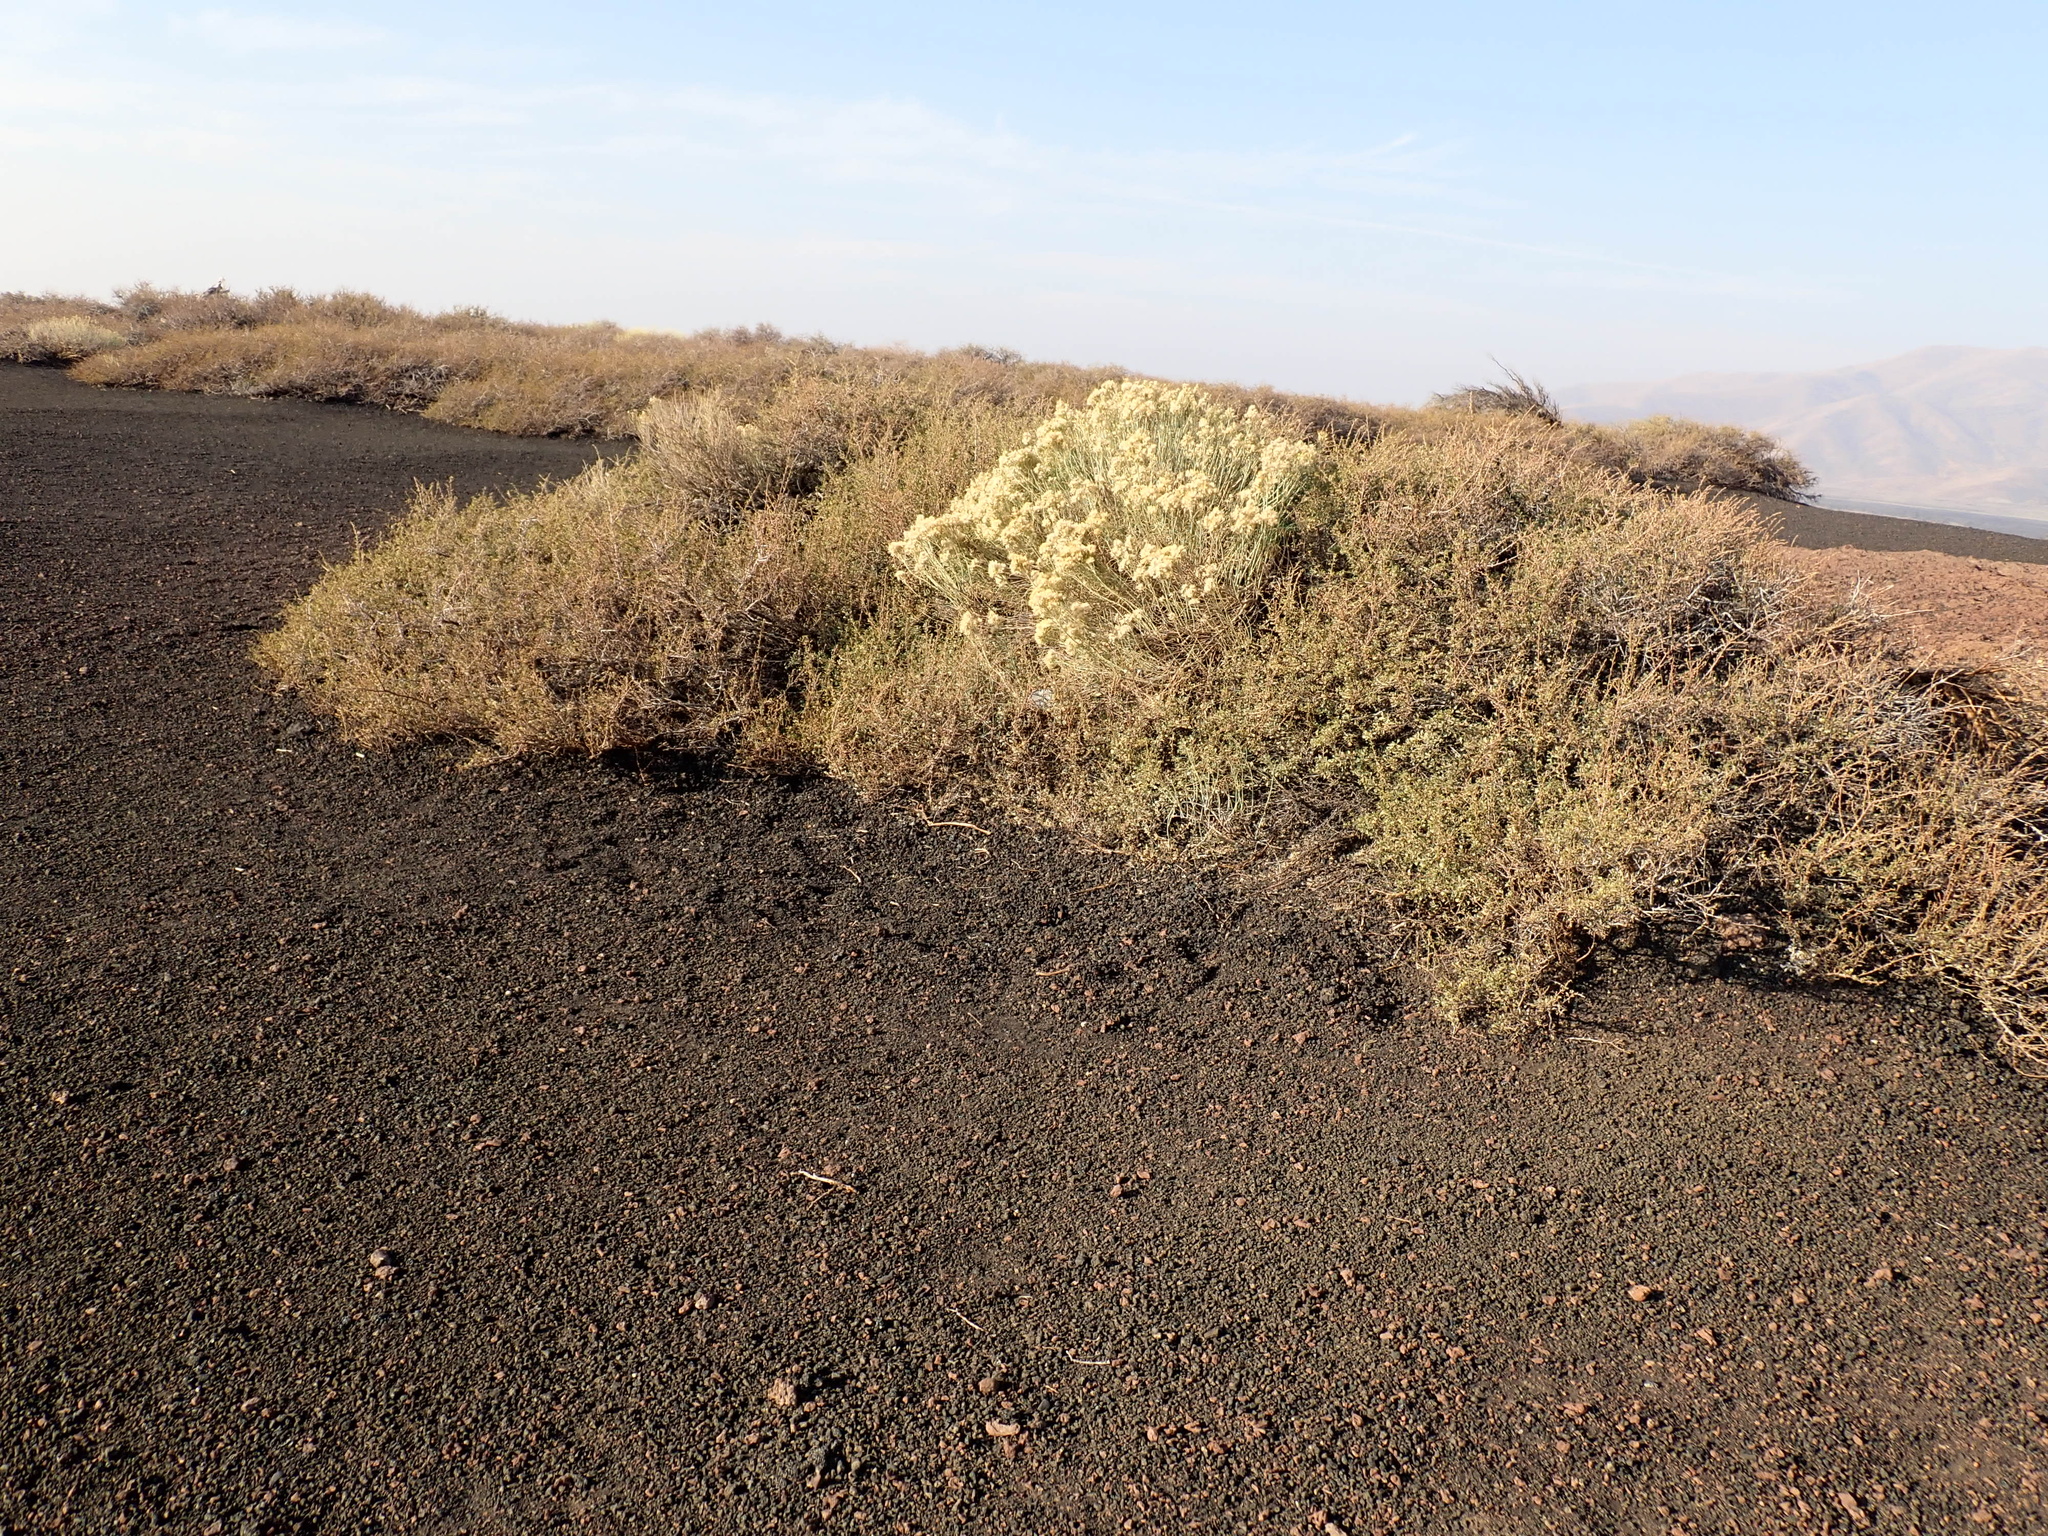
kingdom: Plantae
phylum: Tracheophyta
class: Magnoliopsida
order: Rosales
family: Rosaceae
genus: Purshia
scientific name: Purshia tridentata
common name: Antelope bitterbrush
